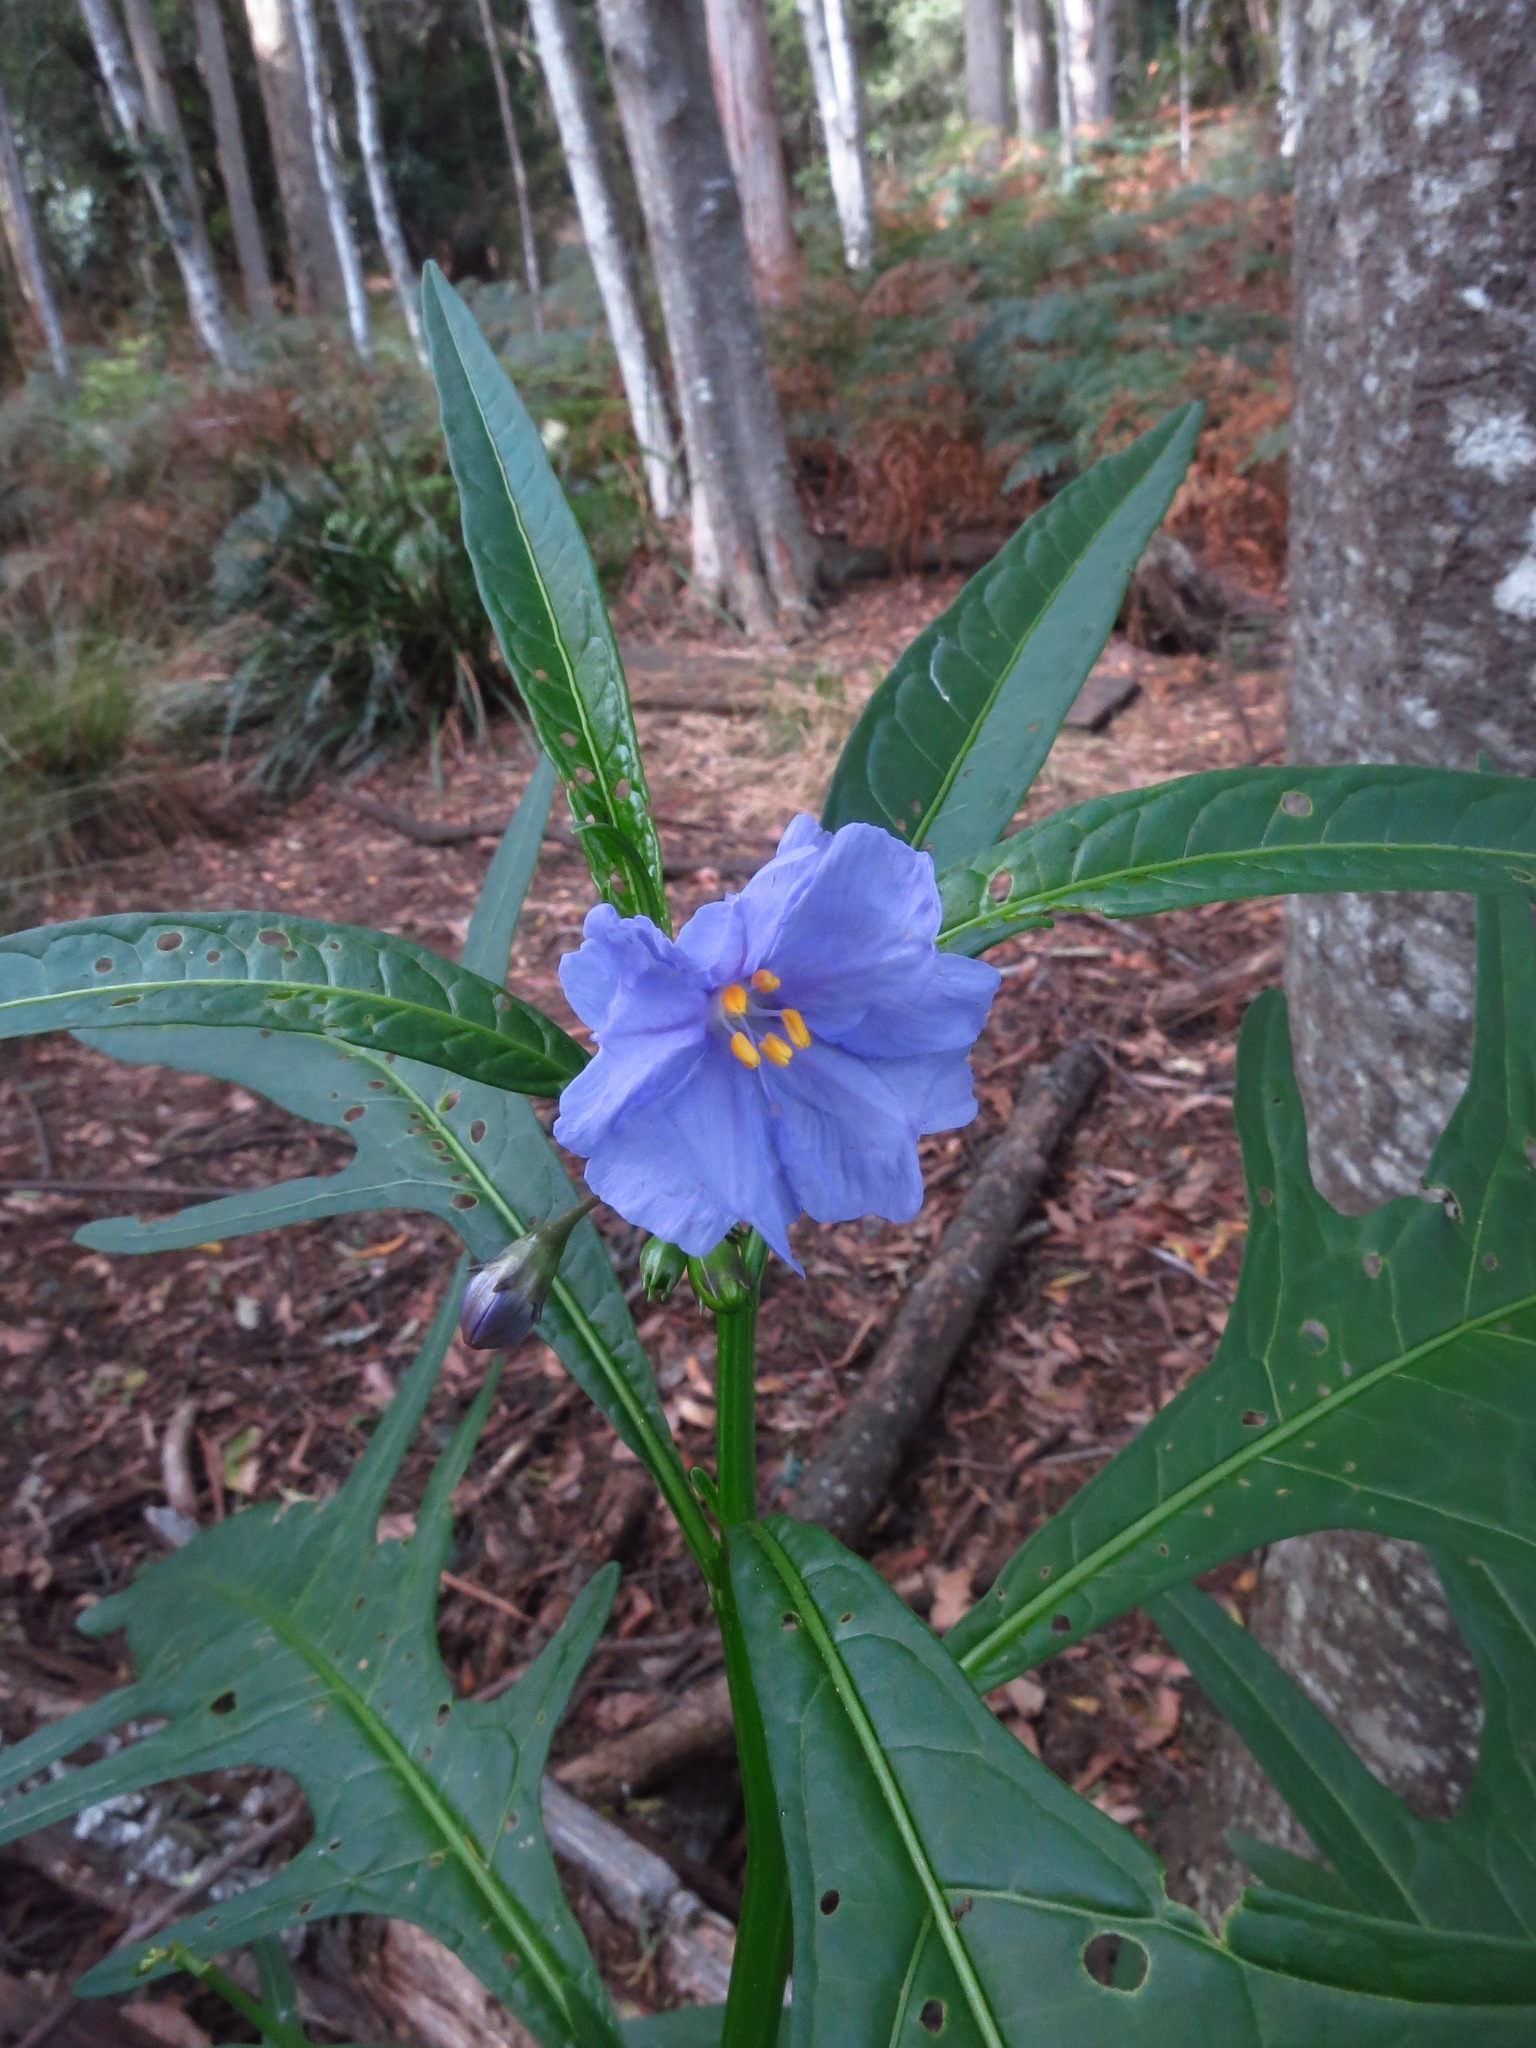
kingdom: Plantae
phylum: Tracheophyta
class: Magnoliopsida
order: Solanales
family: Solanaceae
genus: Solanum
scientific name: Solanum laciniatum
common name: Kangaroo-apple
